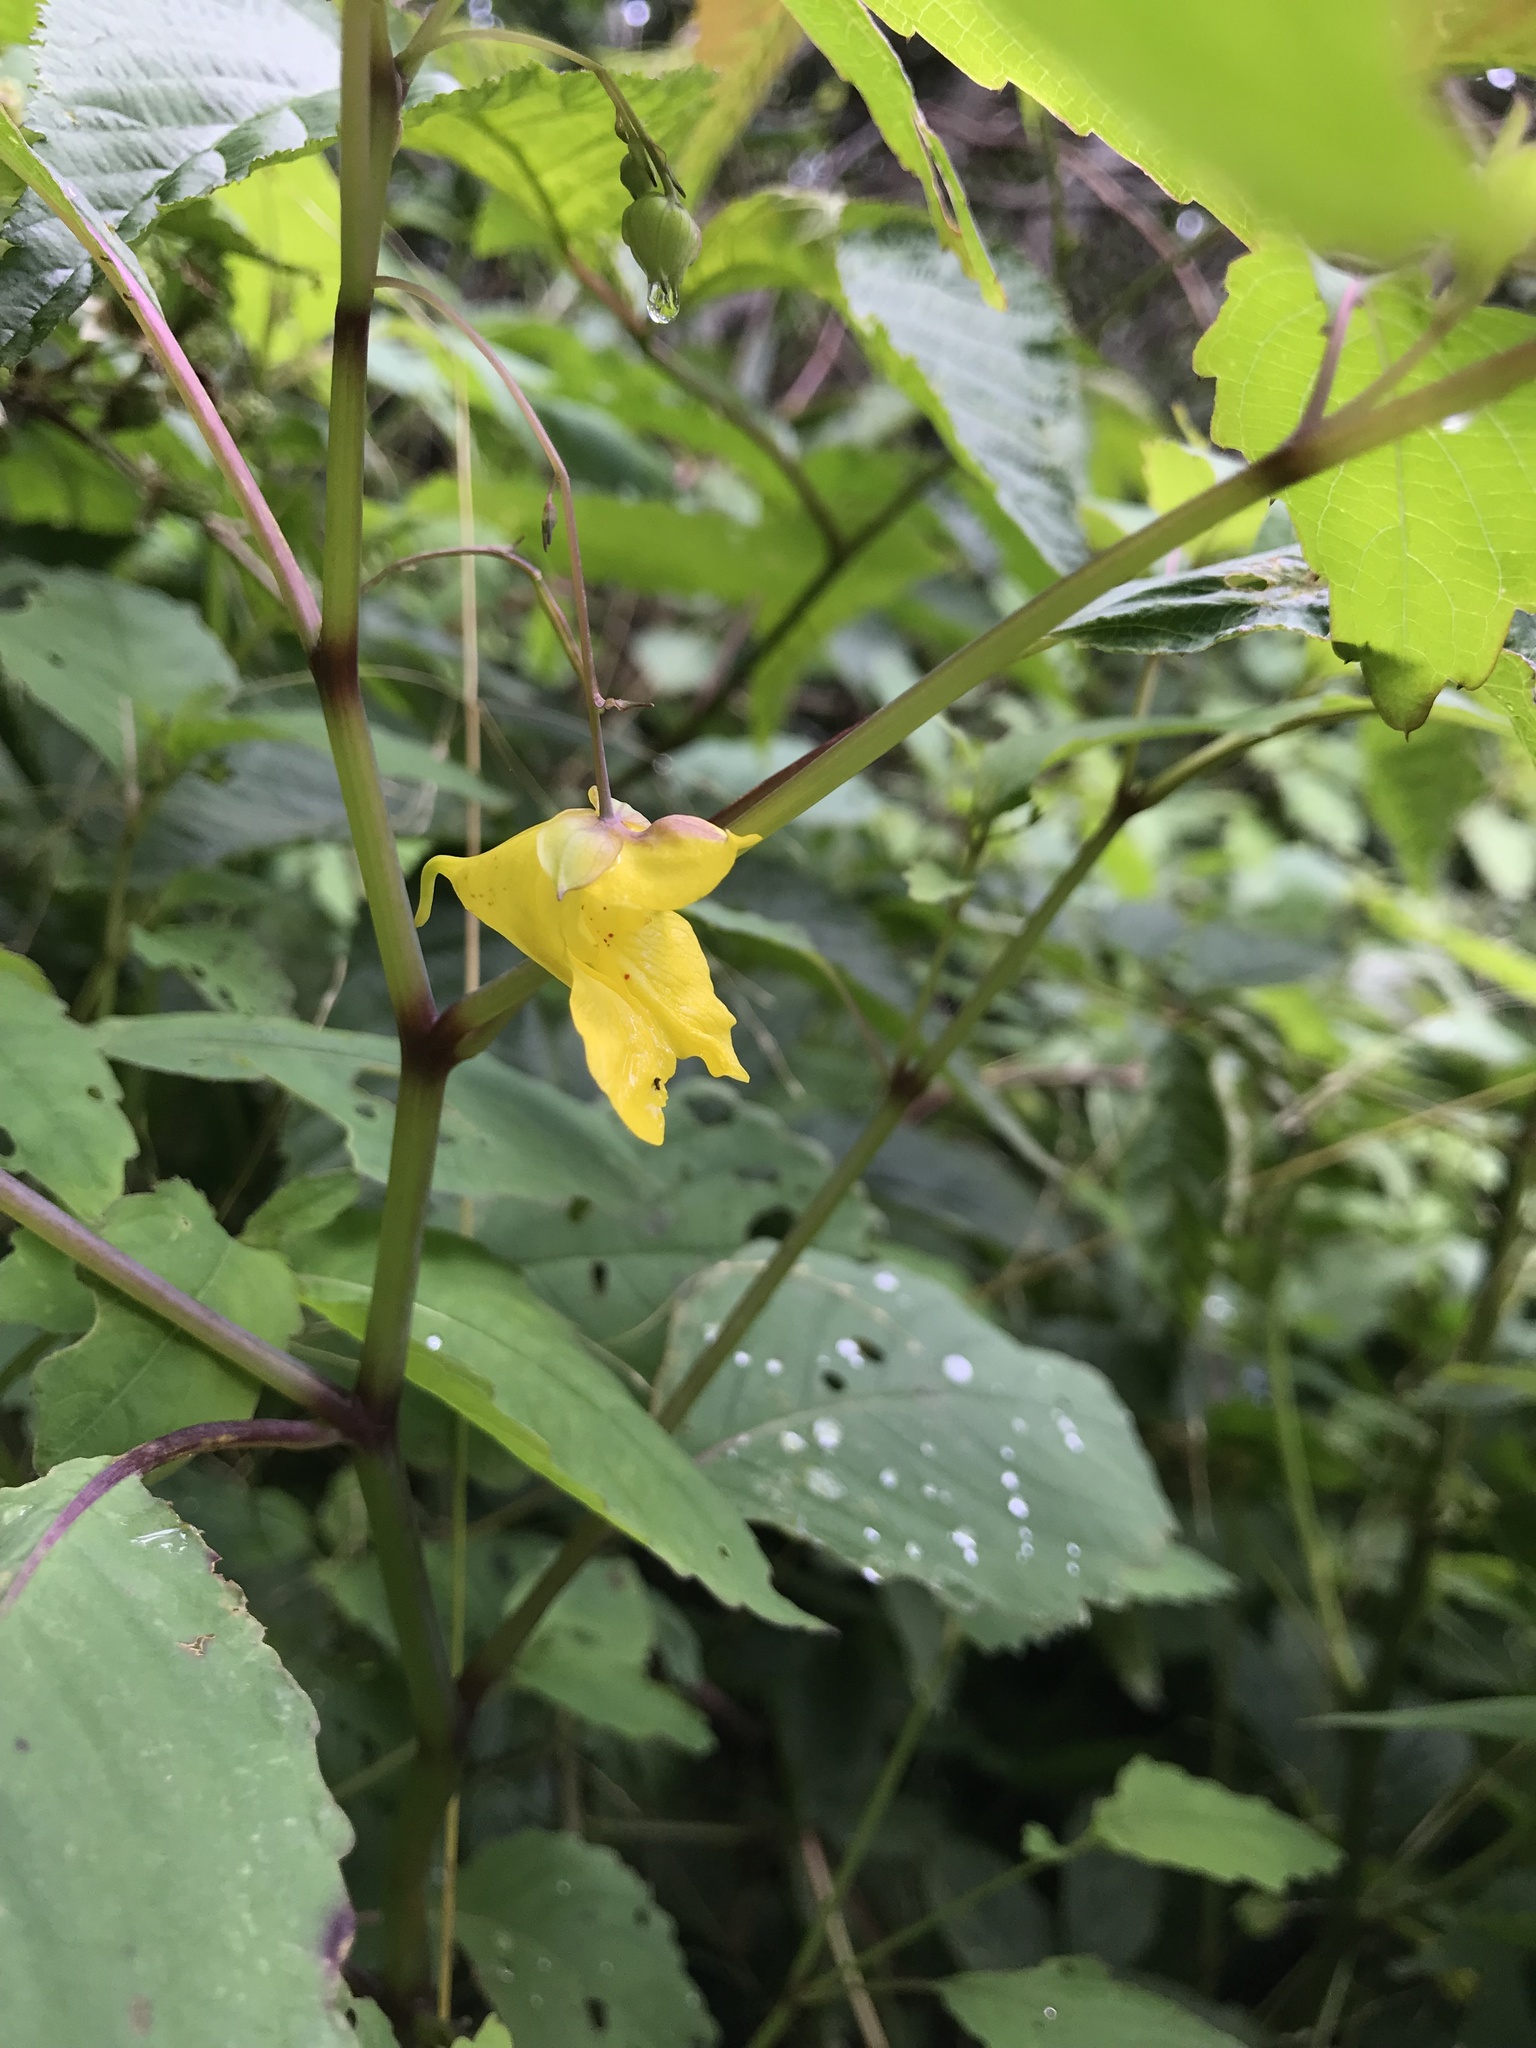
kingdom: Plantae
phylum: Tracheophyta
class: Magnoliopsida
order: Ericales
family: Balsaminaceae
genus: Impatiens
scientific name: Impatiens pallida
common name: Pale snapweed
